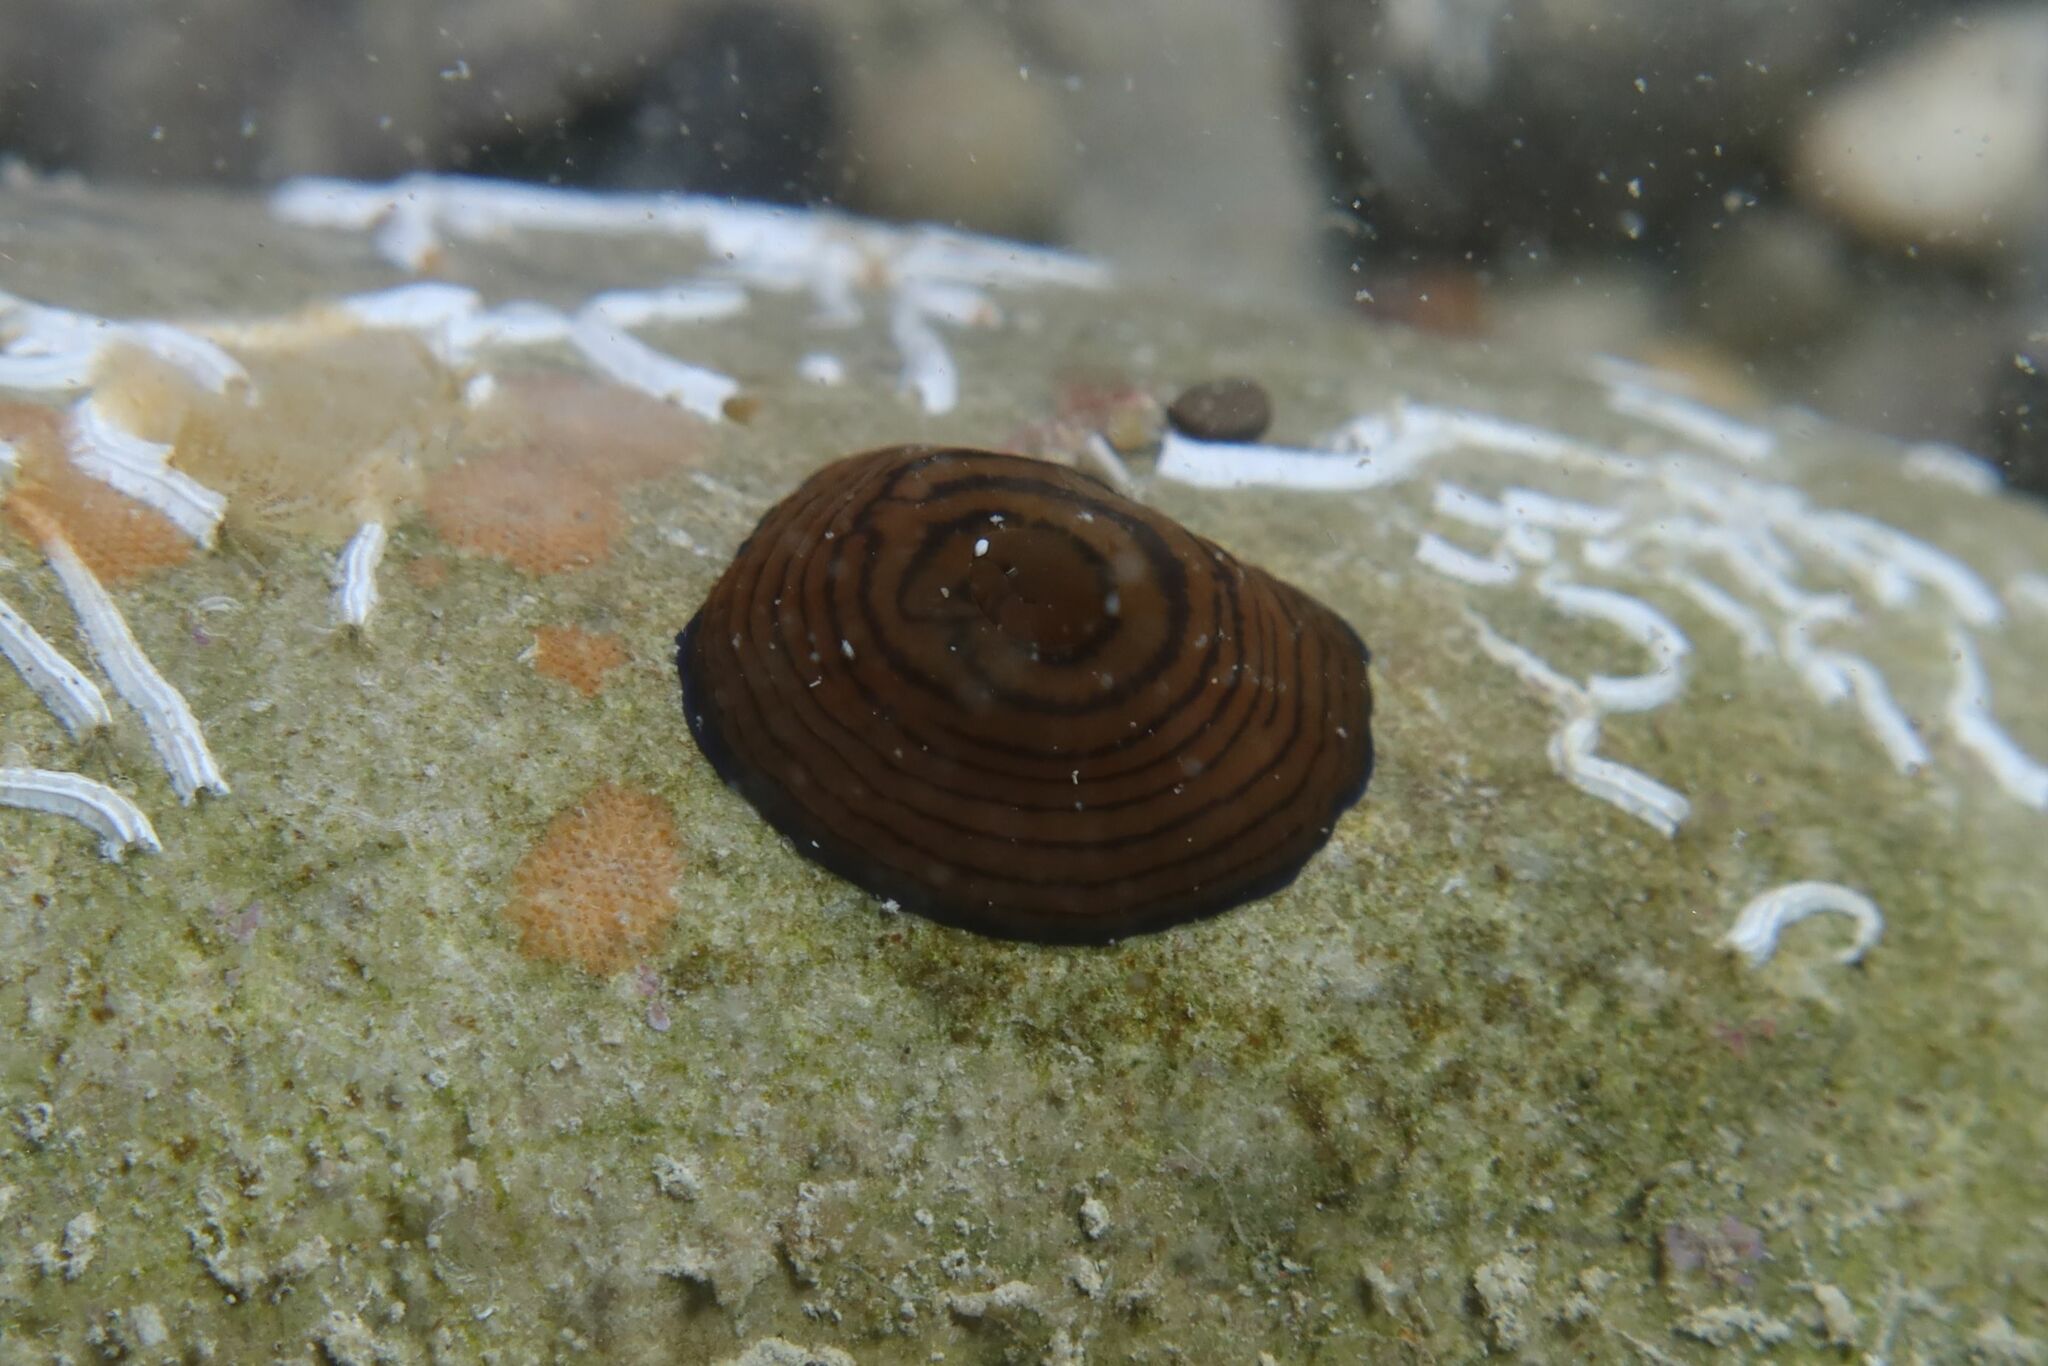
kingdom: Animalia
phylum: Cnidaria
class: Anthozoa
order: Actiniaria
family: Actiniidae
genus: Actinia
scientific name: Actinia cari
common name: Green sea anemone
